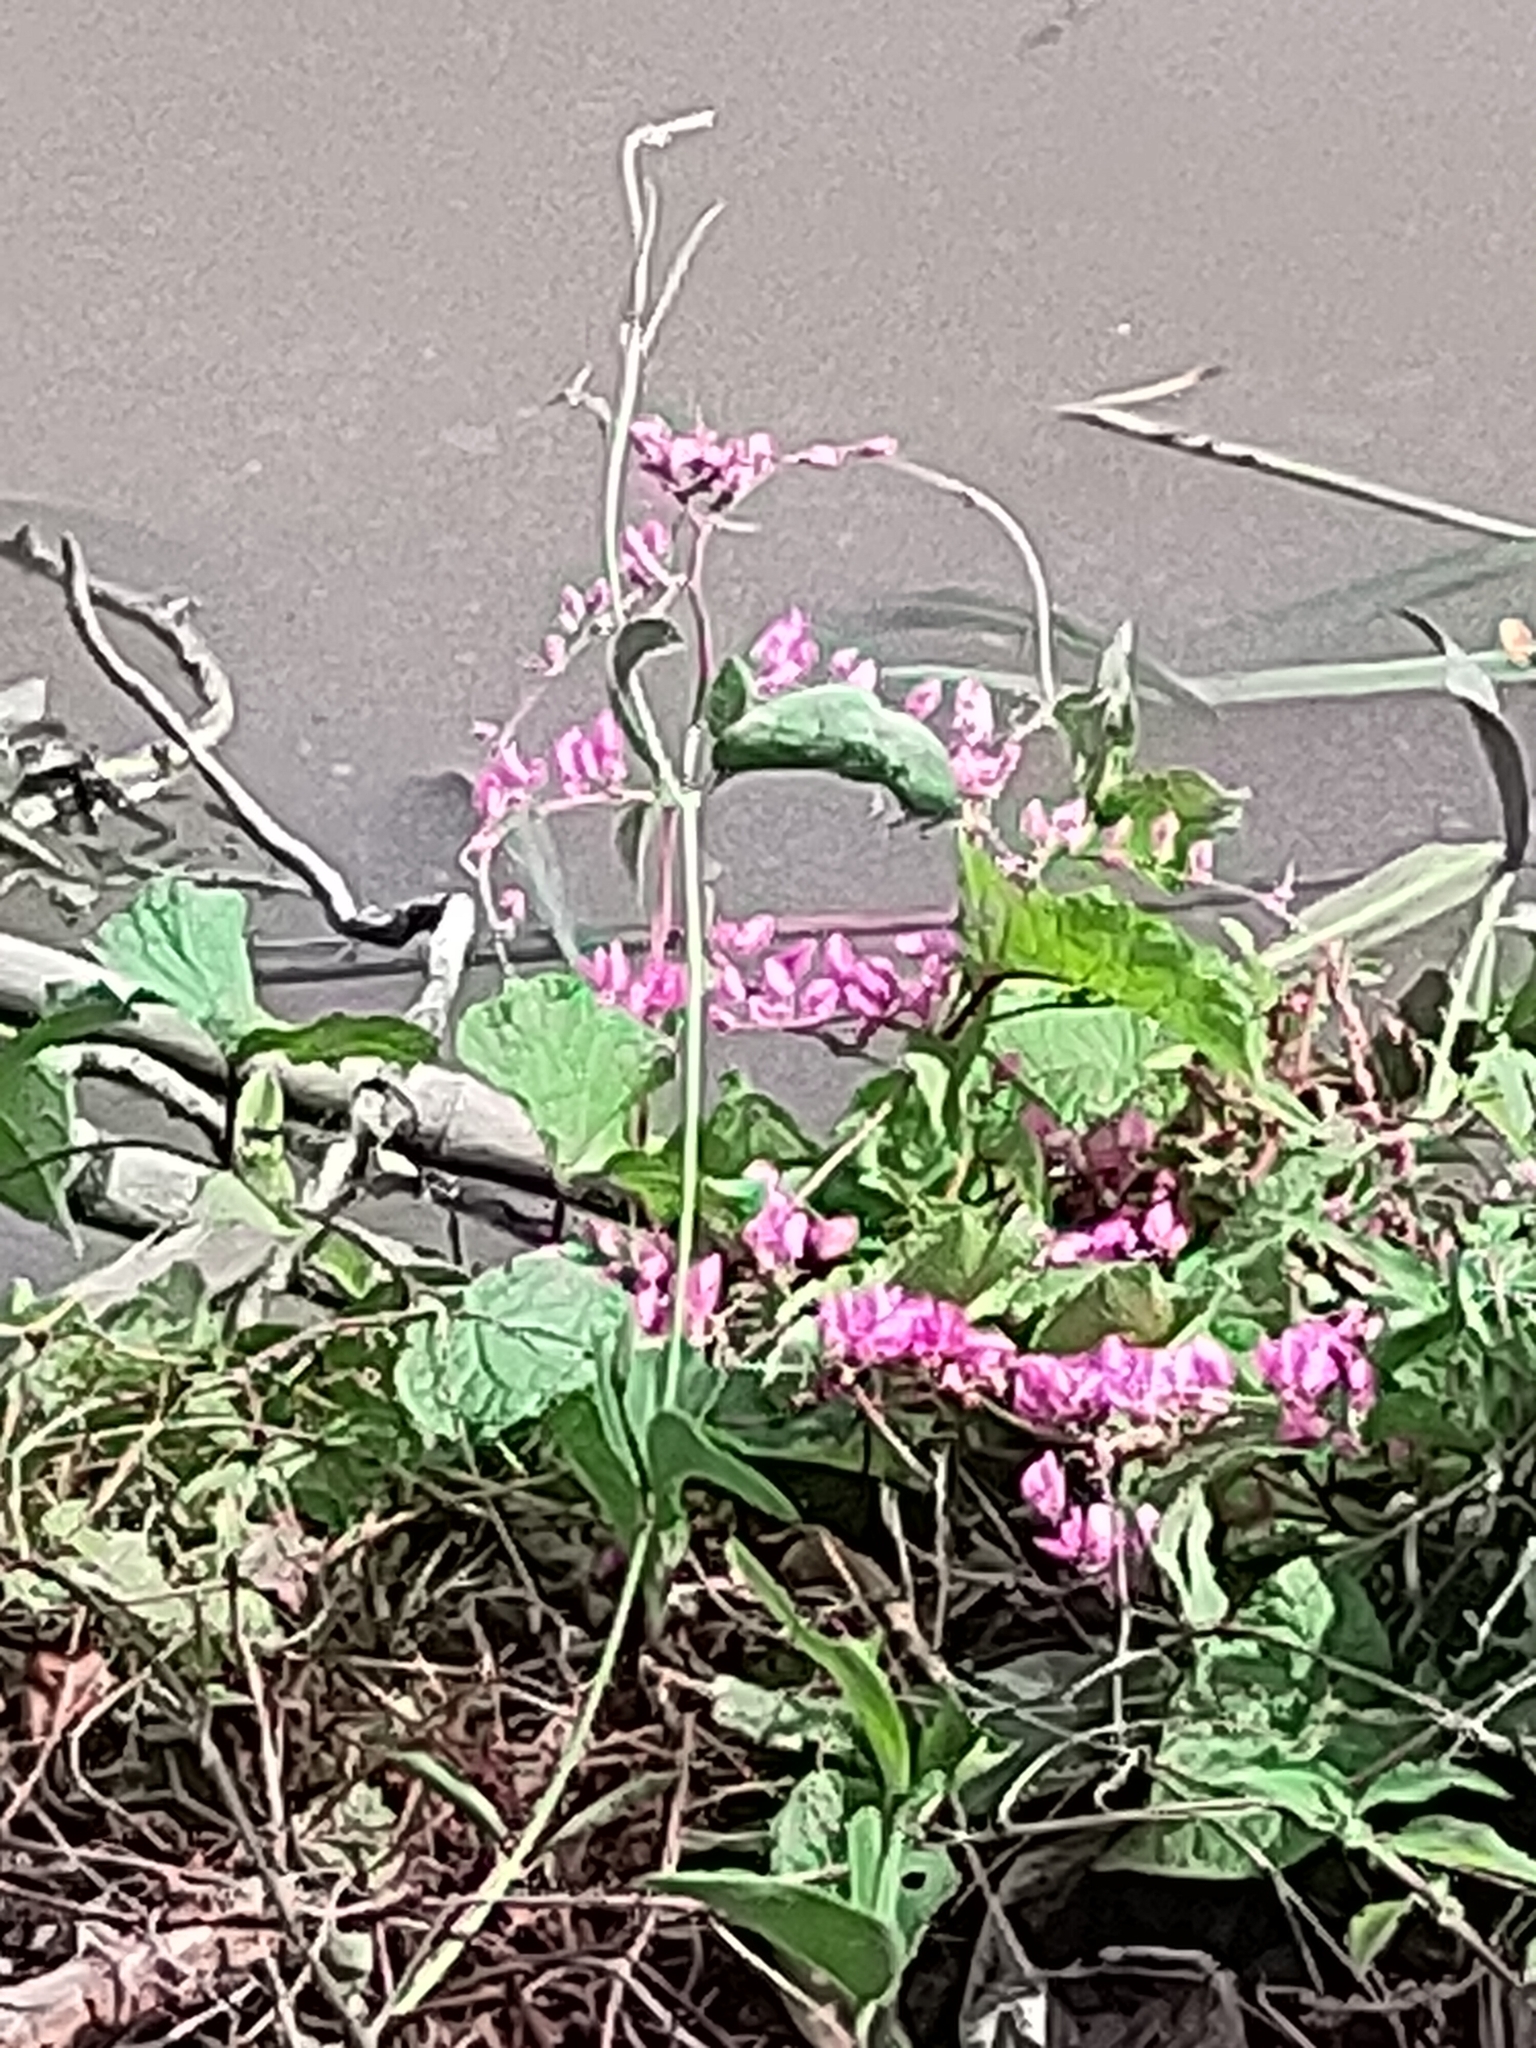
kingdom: Plantae
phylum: Tracheophyta
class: Magnoliopsida
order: Caryophyllales
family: Polygonaceae
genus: Antigonon
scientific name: Antigonon leptopus
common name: Coral vine
